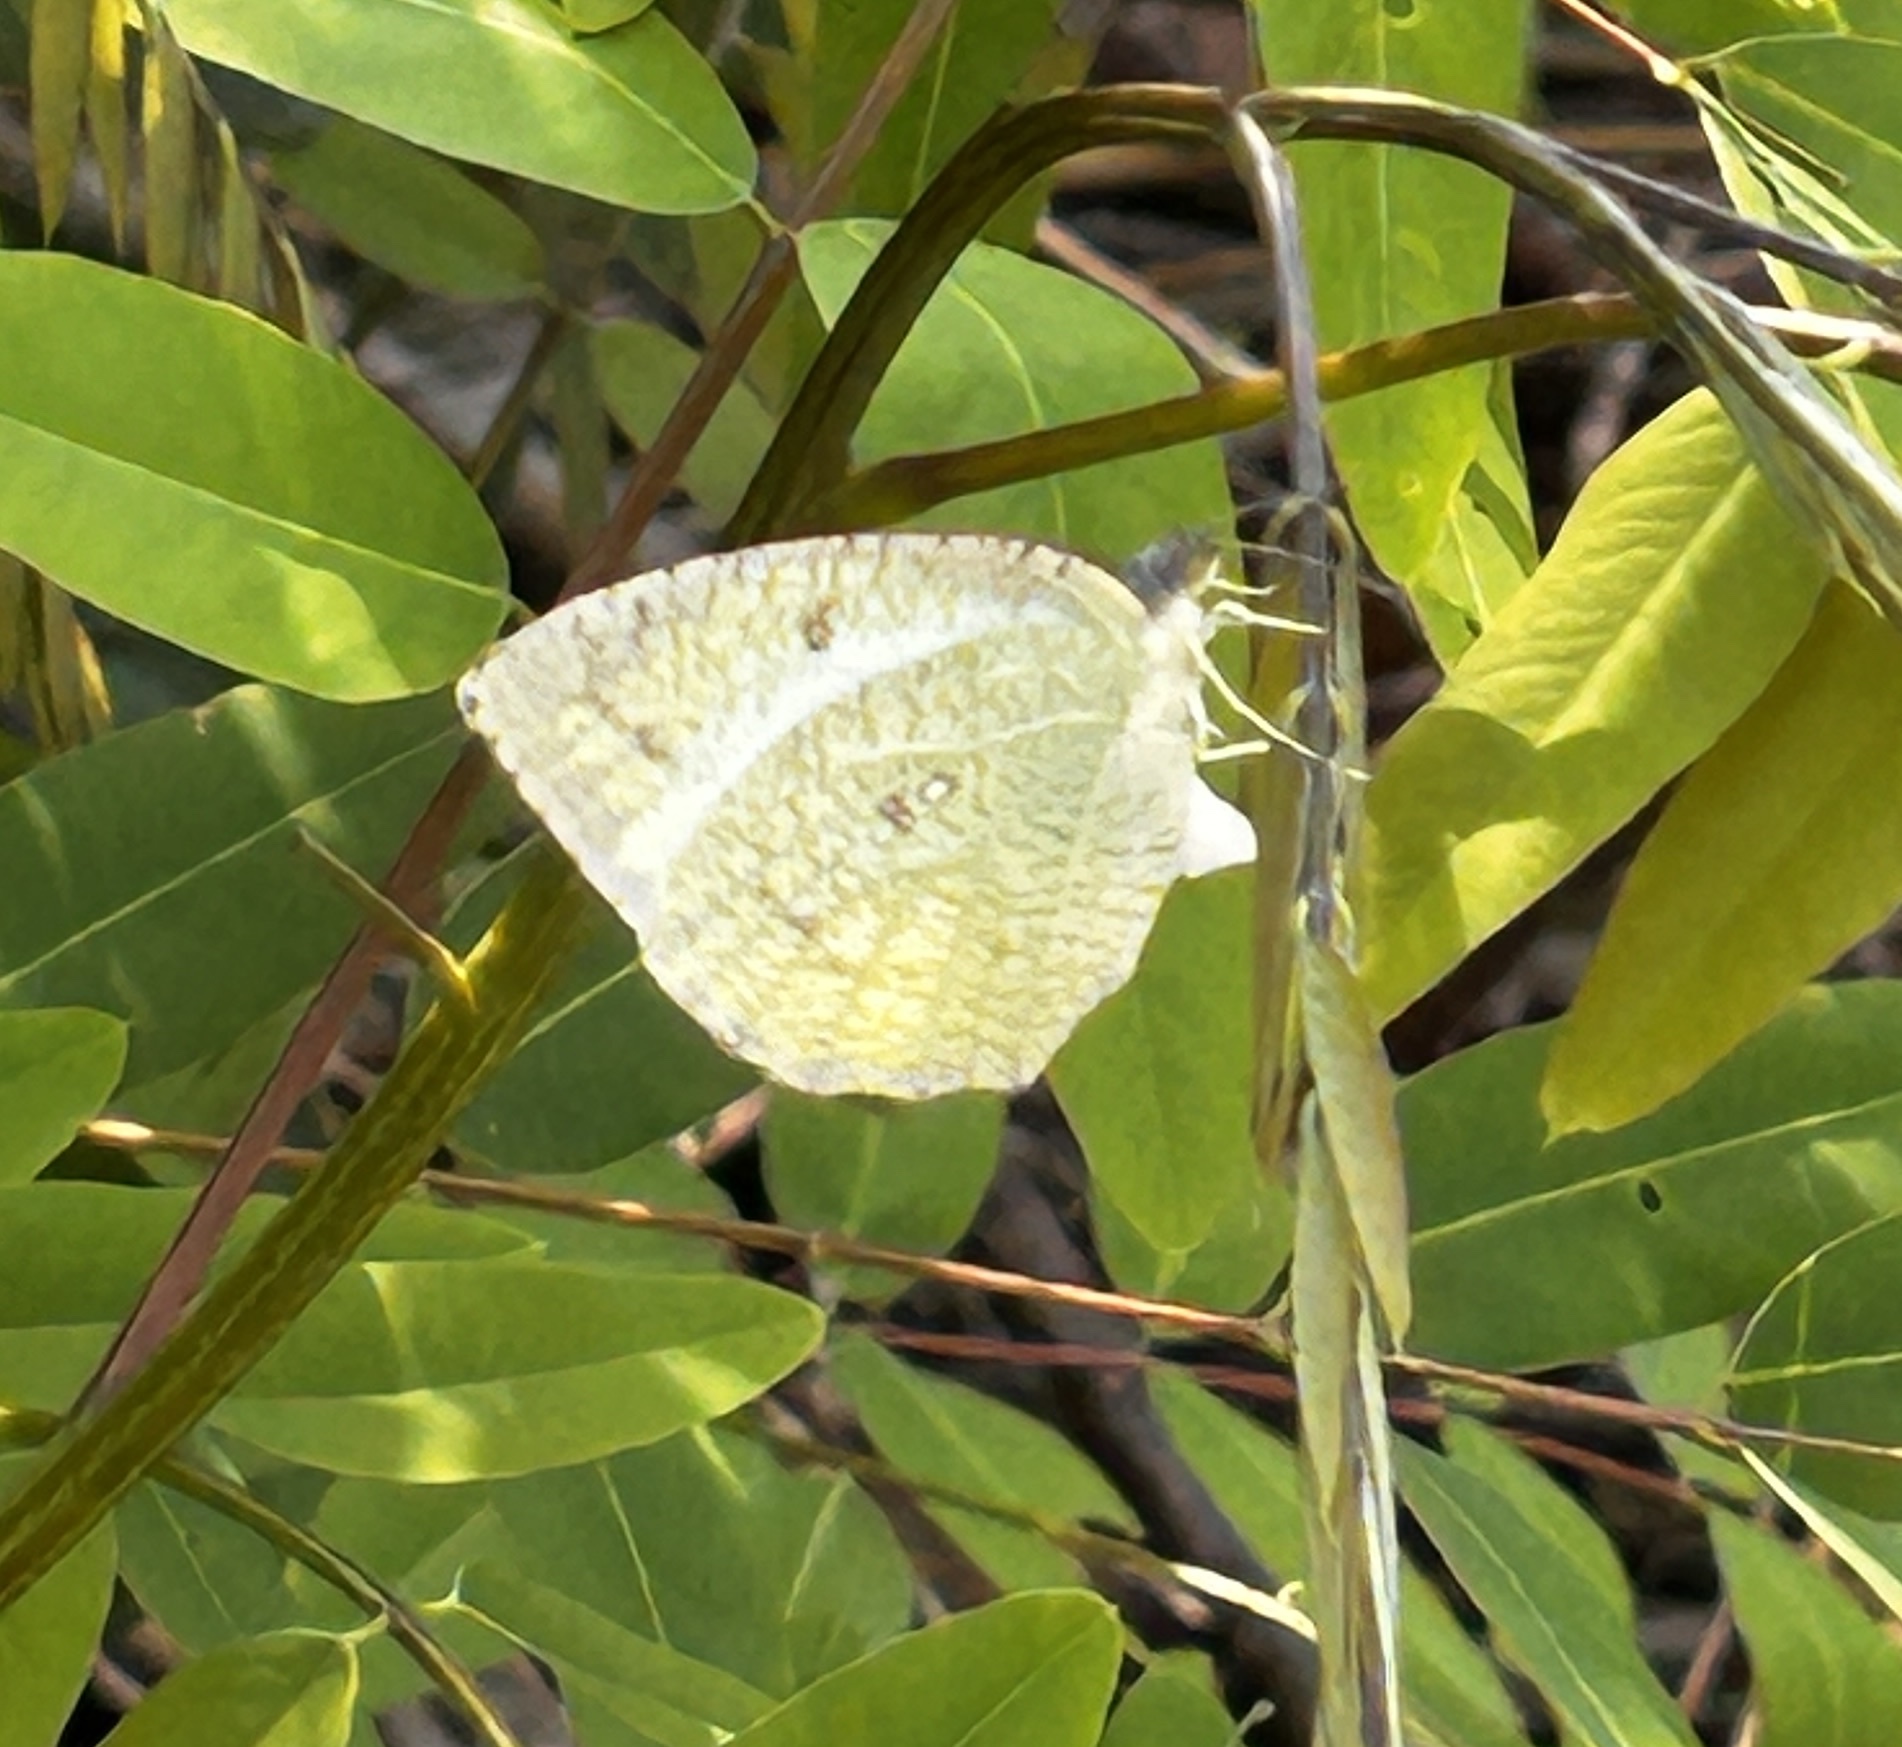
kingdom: Animalia
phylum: Arthropoda
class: Insecta
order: Lepidoptera
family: Pieridae
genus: Catopsilia
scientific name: Catopsilia pyranthe
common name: Mottled emigrant
